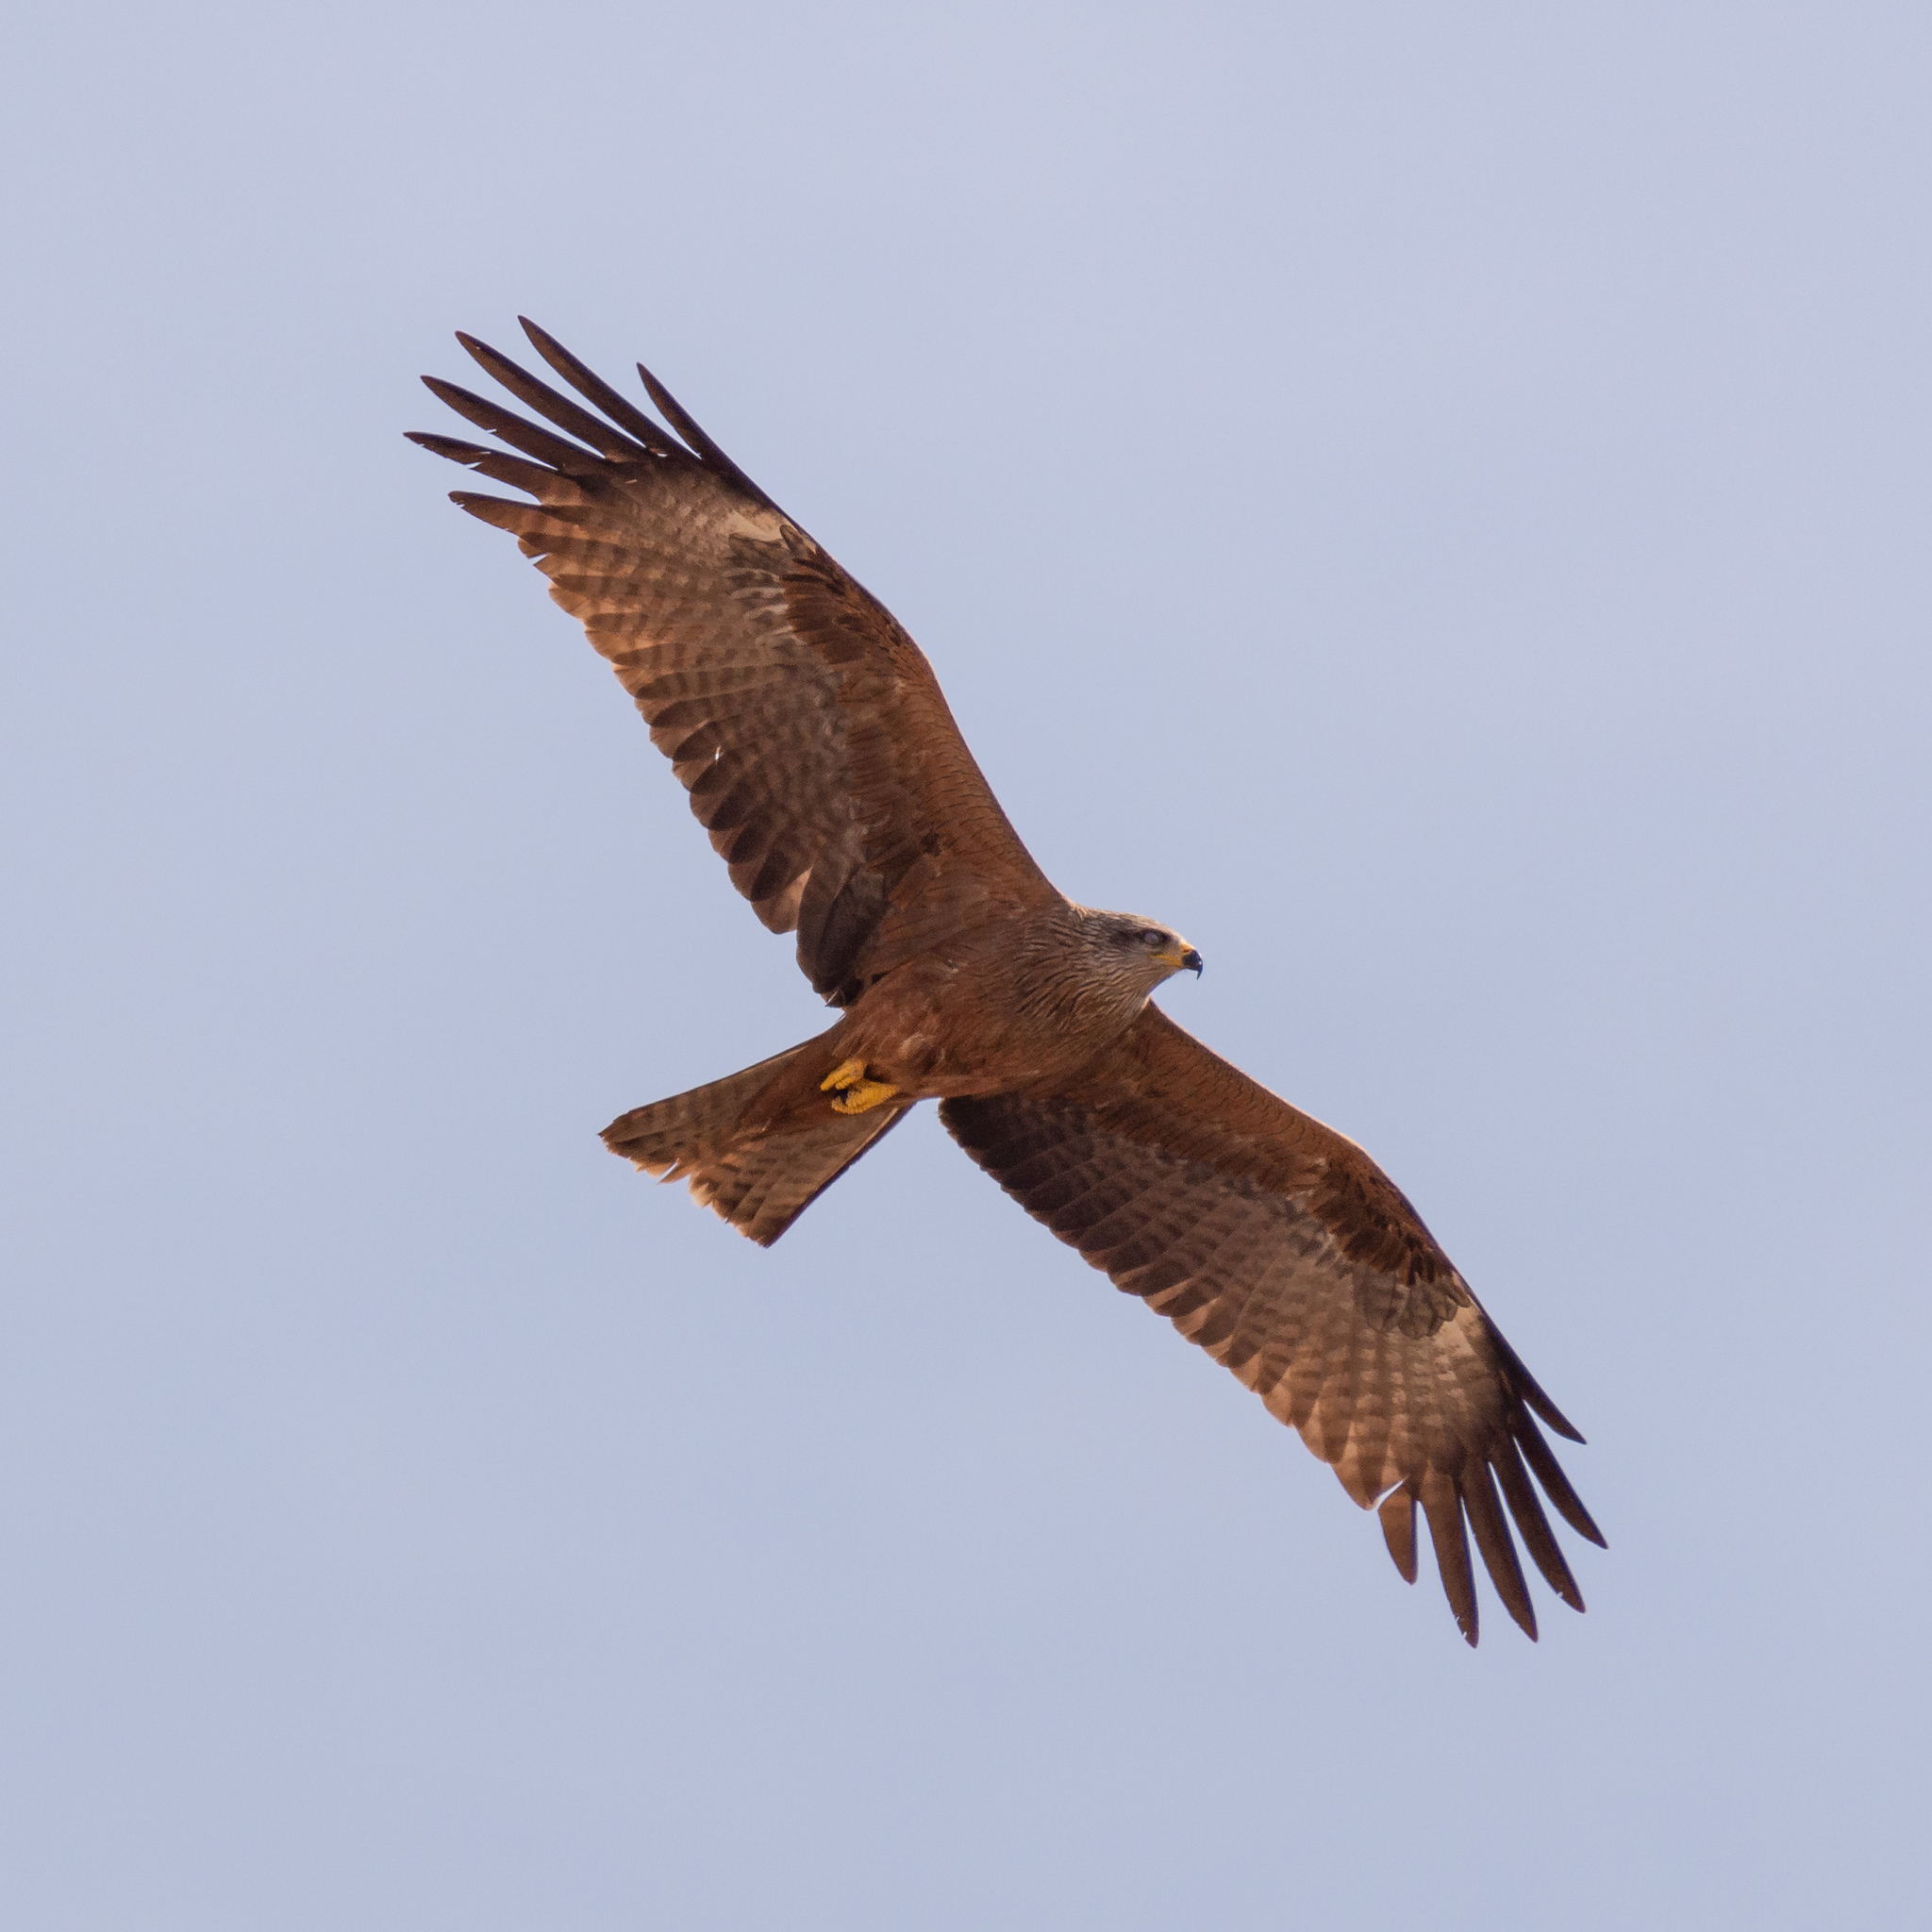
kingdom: Animalia
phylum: Chordata
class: Aves
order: Accipitriformes
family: Accipitridae
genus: Milvus
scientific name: Milvus migrans
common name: Black kite
